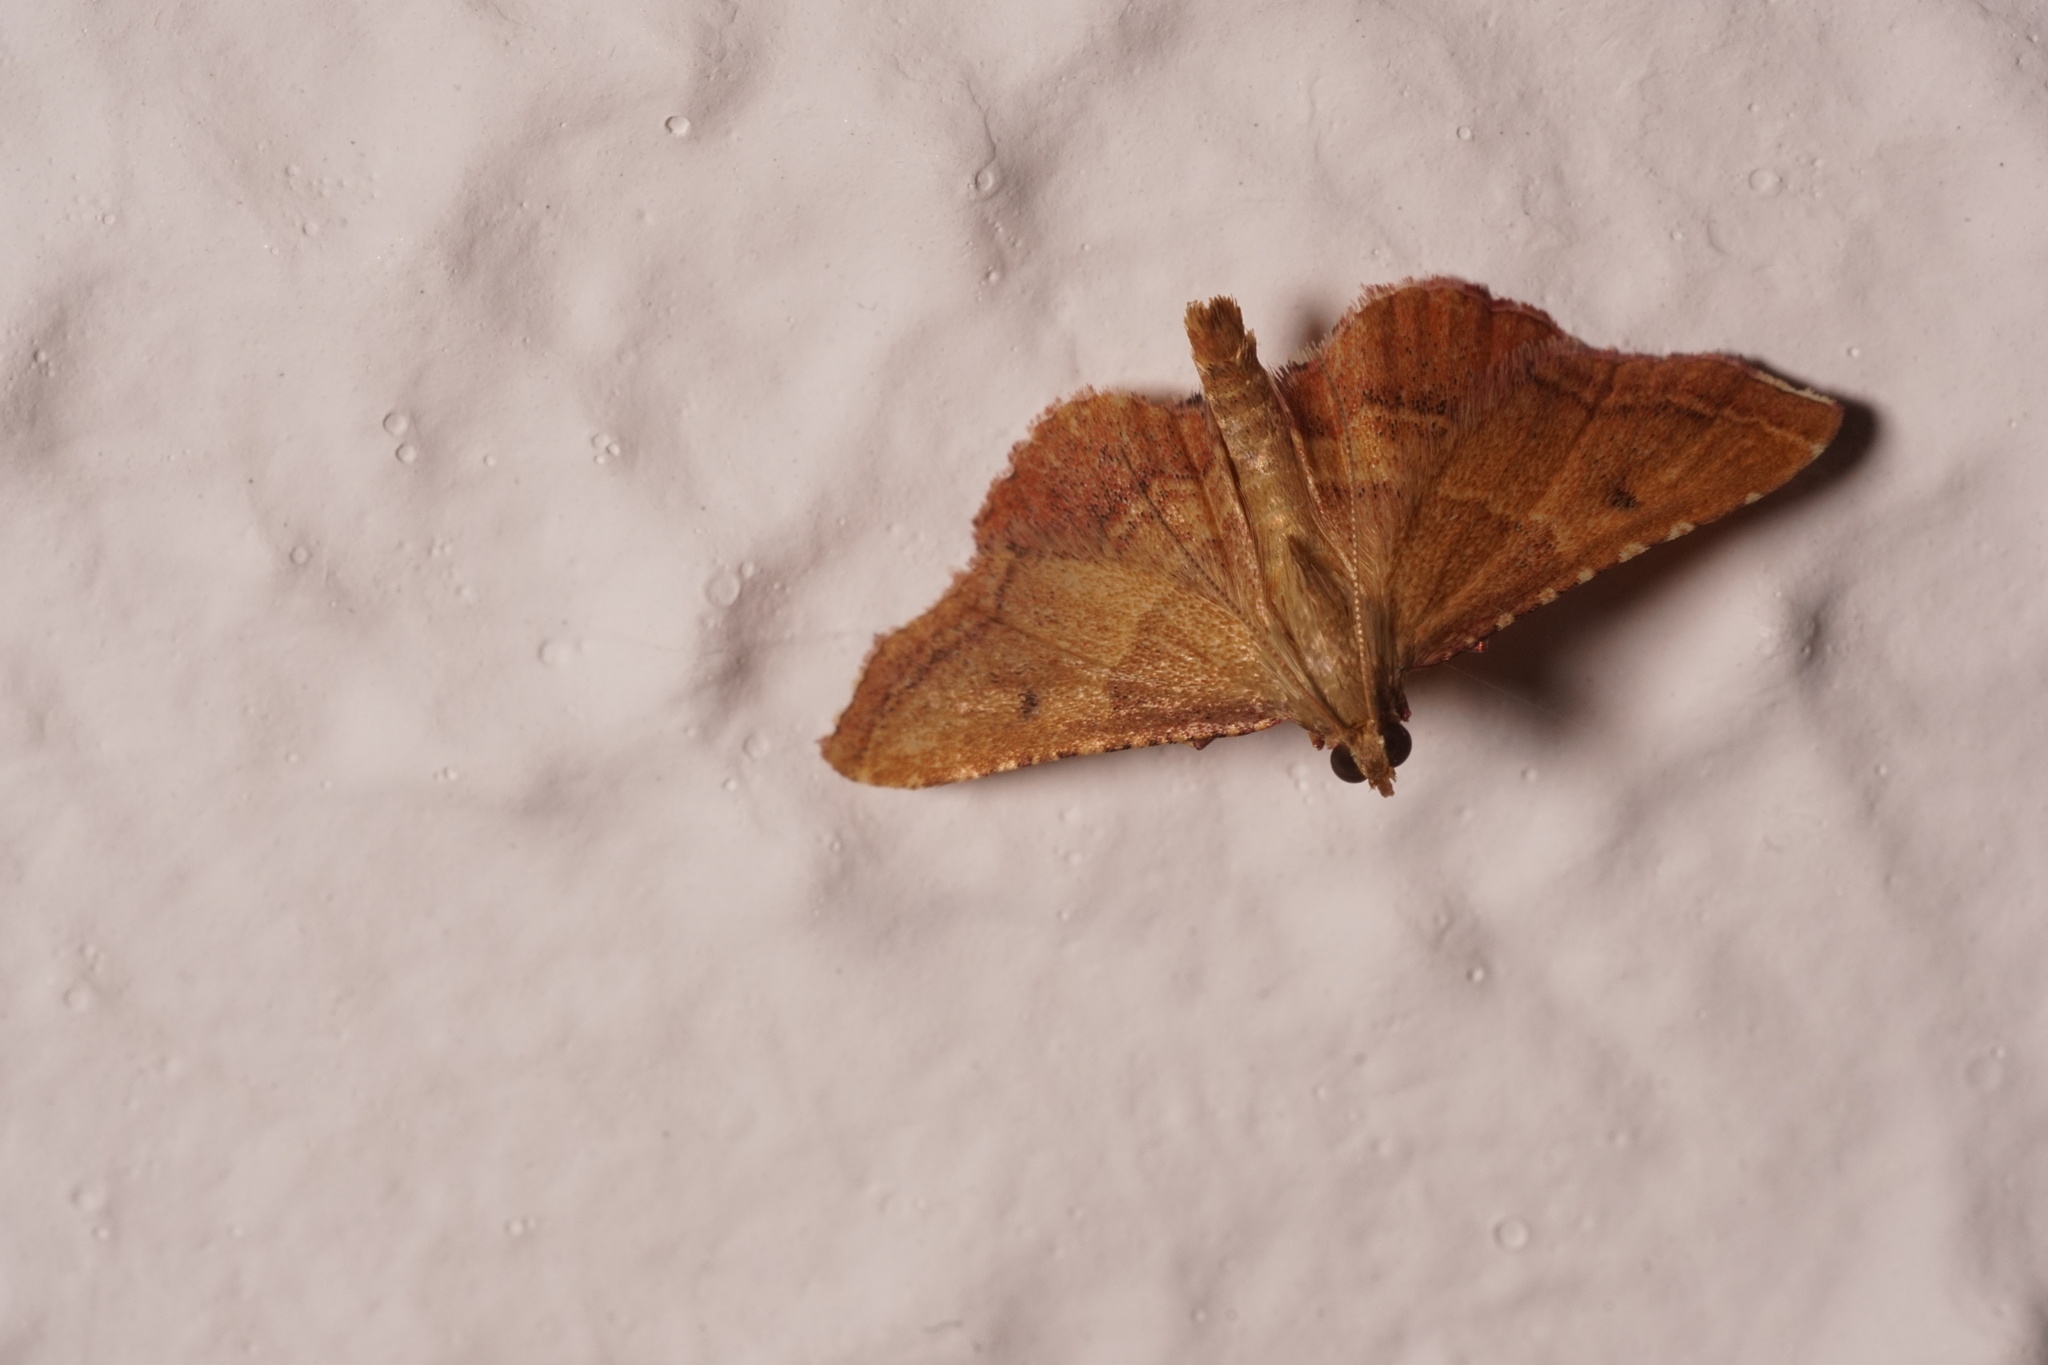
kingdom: Animalia
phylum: Arthropoda
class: Insecta
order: Lepidoptera
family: Pyralidae
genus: Endotricha
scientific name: Endotricha flammealis
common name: Rosy tabby
